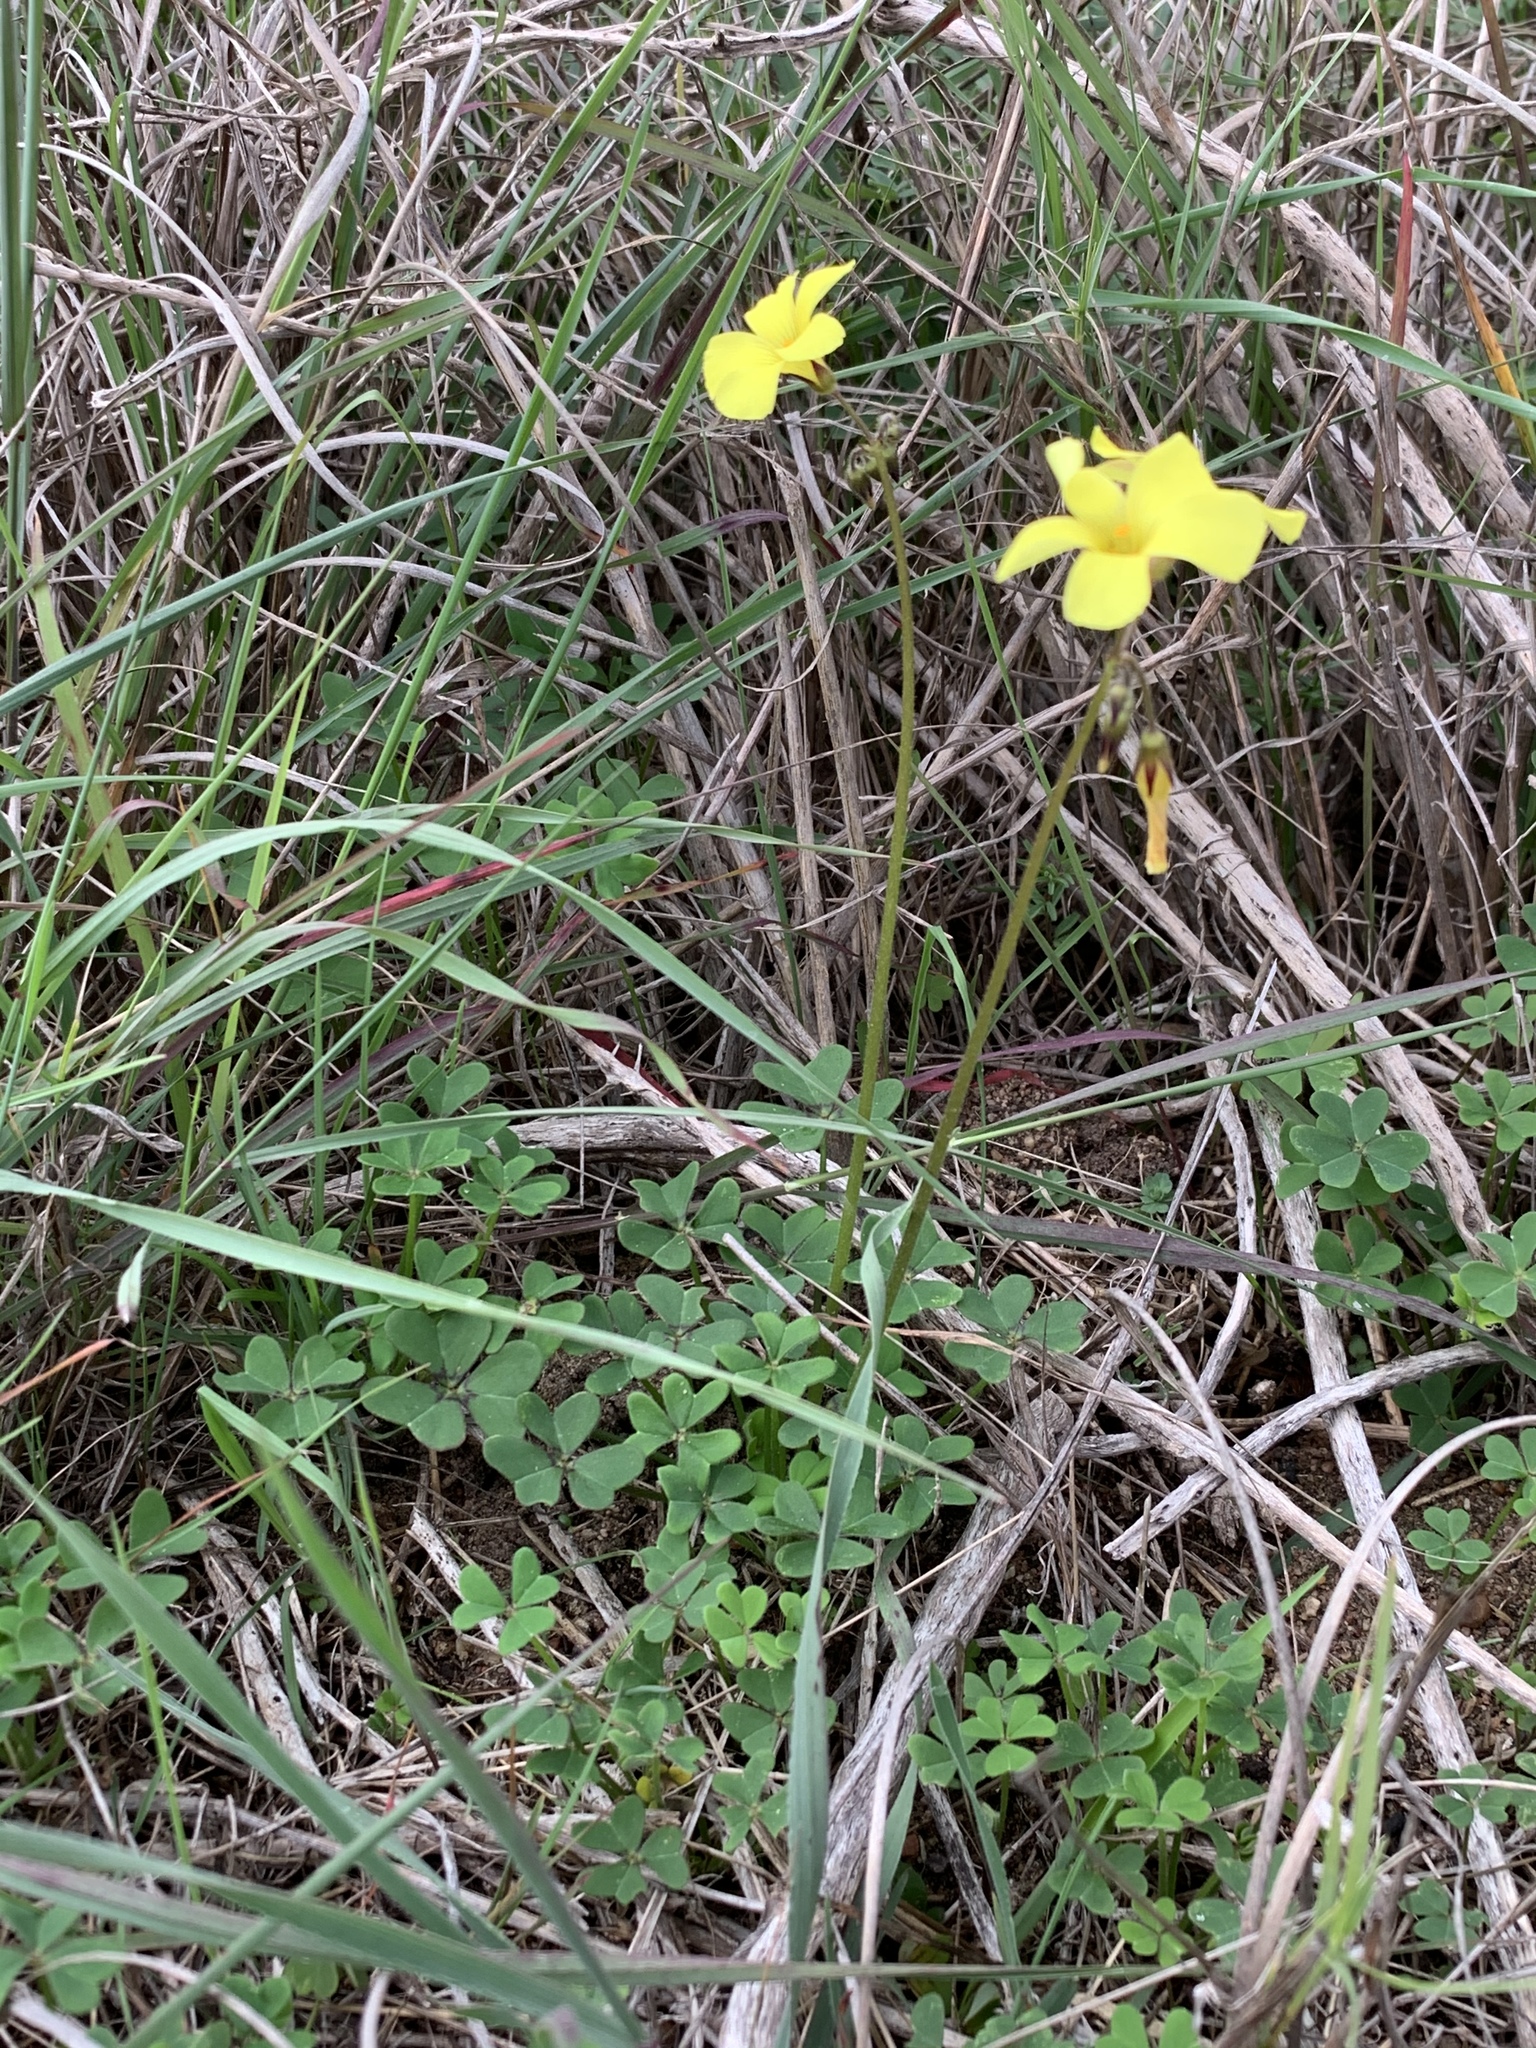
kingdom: Plantae
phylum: Tracheophyta
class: Magnoliopsida
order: Oxalidales
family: Oxalidaceae
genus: Oxalis
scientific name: Oxalis pes-caprae
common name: Bermuda-buttercup
